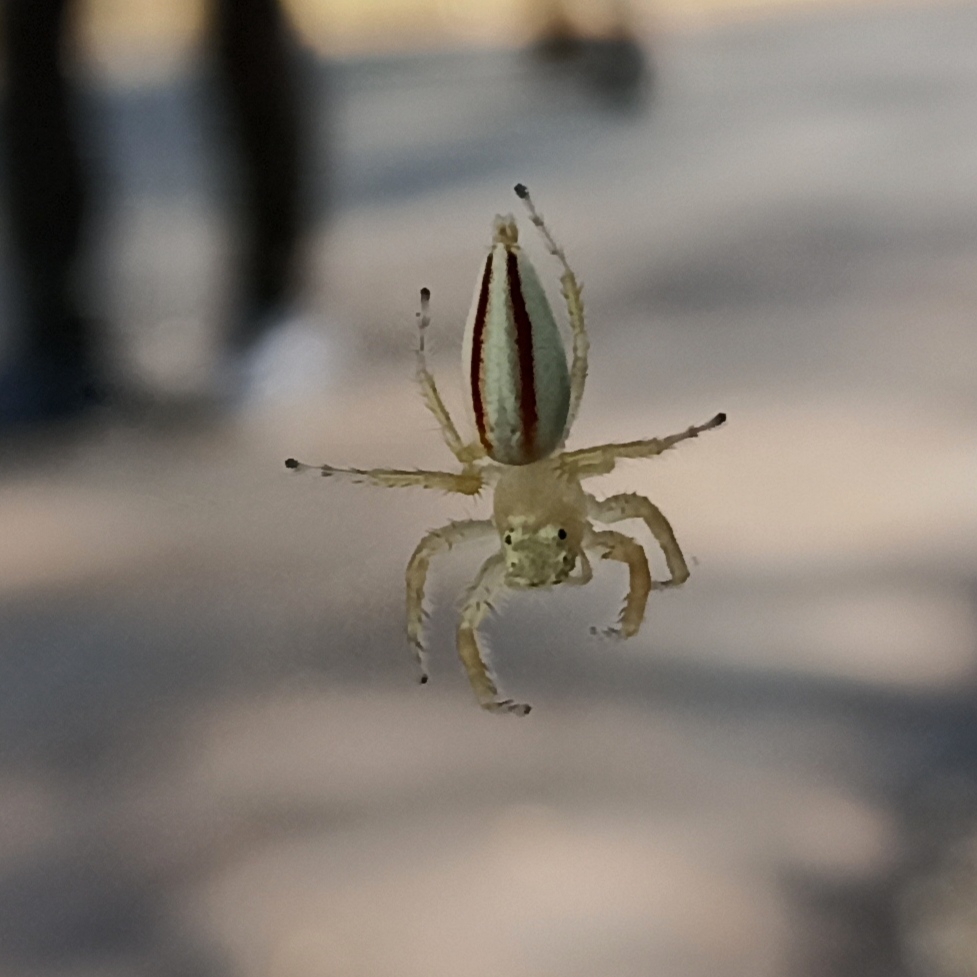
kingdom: Animalia
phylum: Arthropoda
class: Arachnida
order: Araneae
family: Salticidae
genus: Telamonia
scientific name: Telamonia dimidiata
